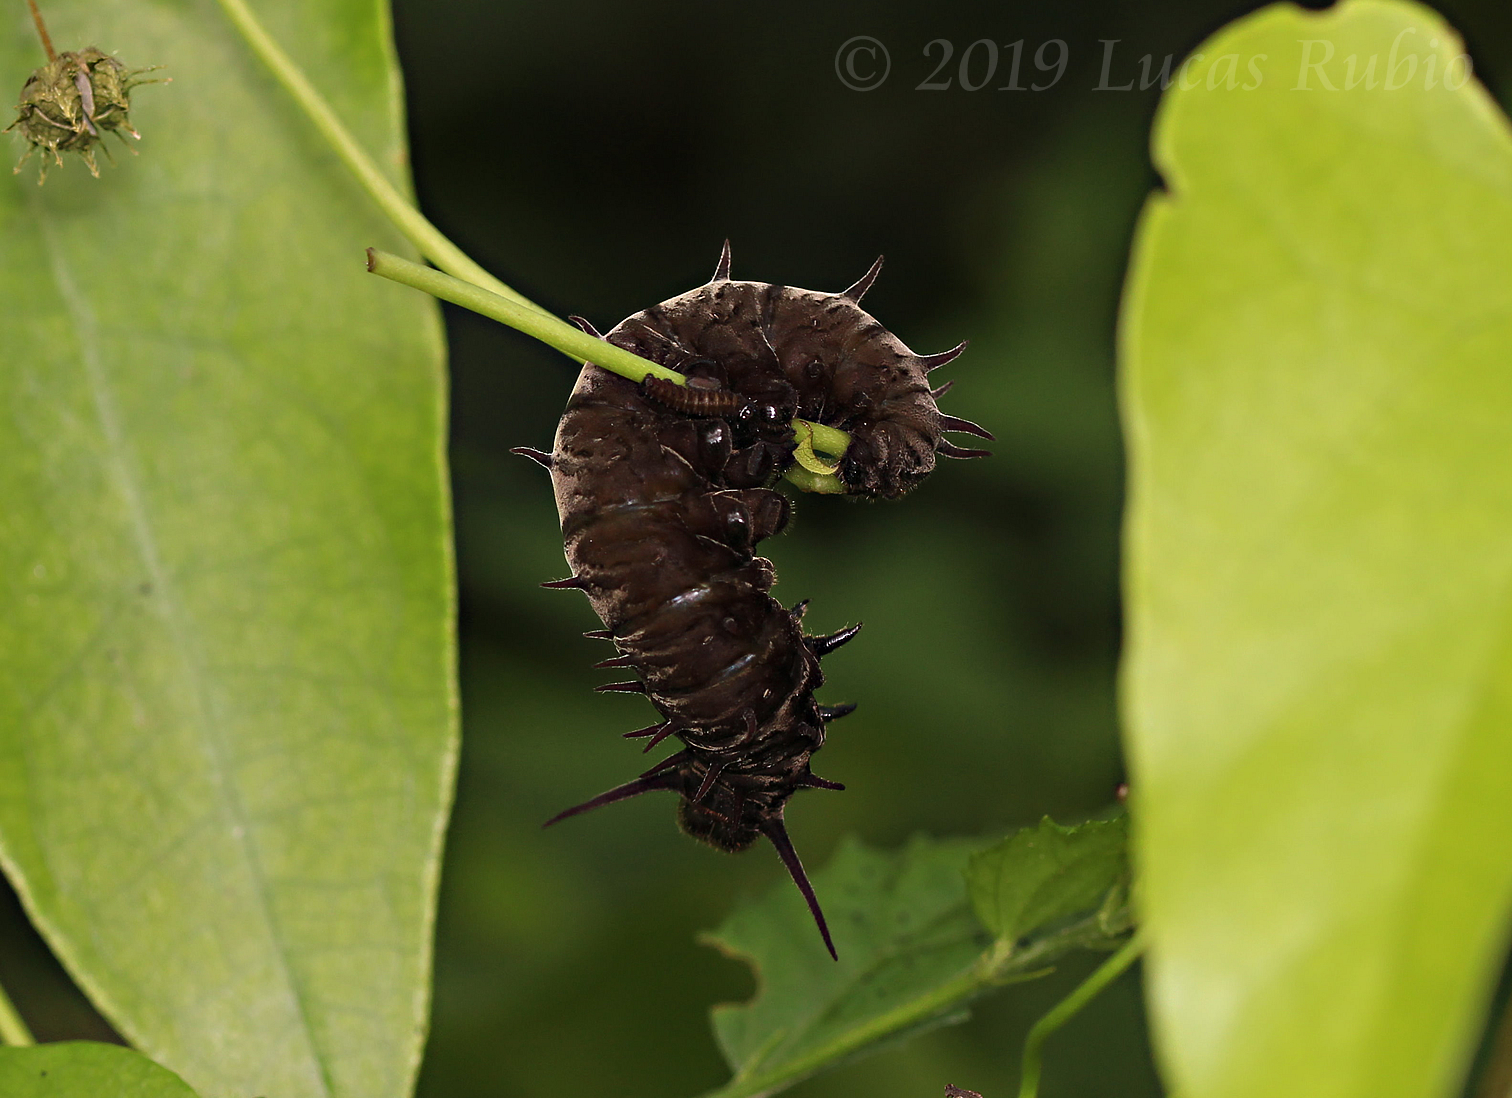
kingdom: Animalia
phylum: Arthropoda
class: Insecta
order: Lepidoptera
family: Papilionidae
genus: Battus
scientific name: Battus polystictus
